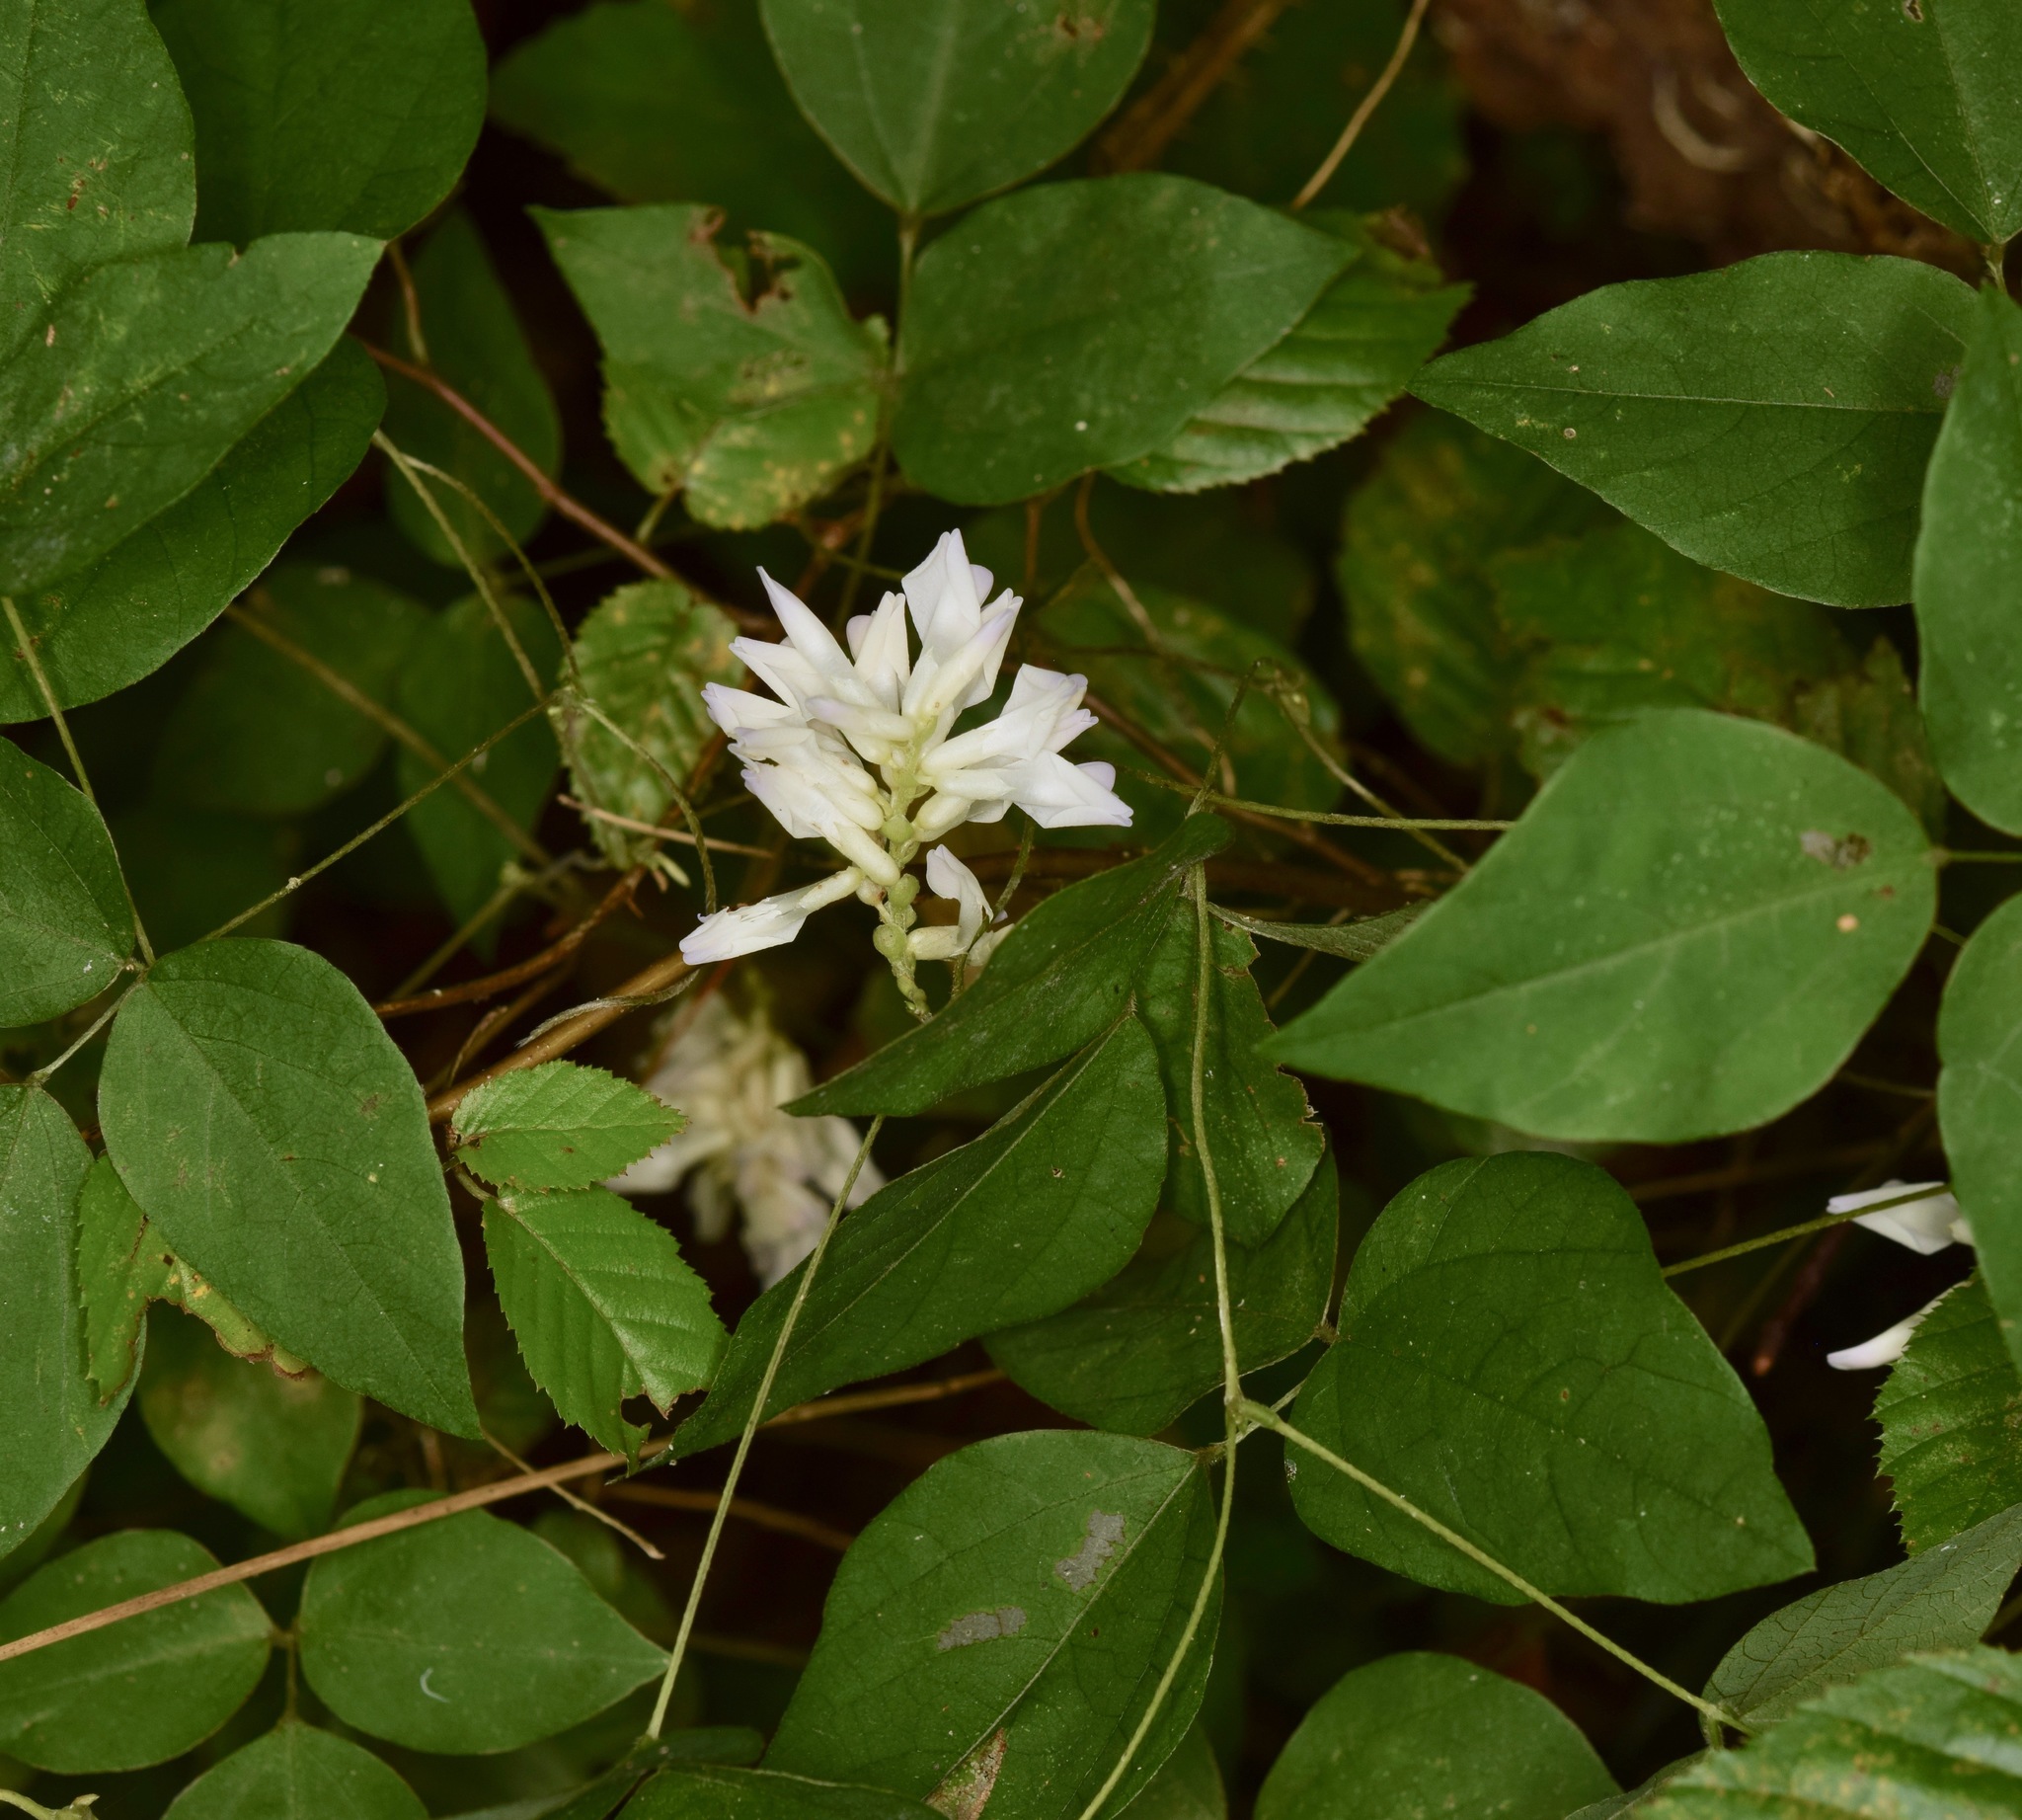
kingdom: Plantae
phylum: Tracheophyta
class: Magnoliopsida
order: Fabales
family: Fabaceae
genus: Amphicarpaea
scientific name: Amphicarpaea bracteata
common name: American hog peanut
